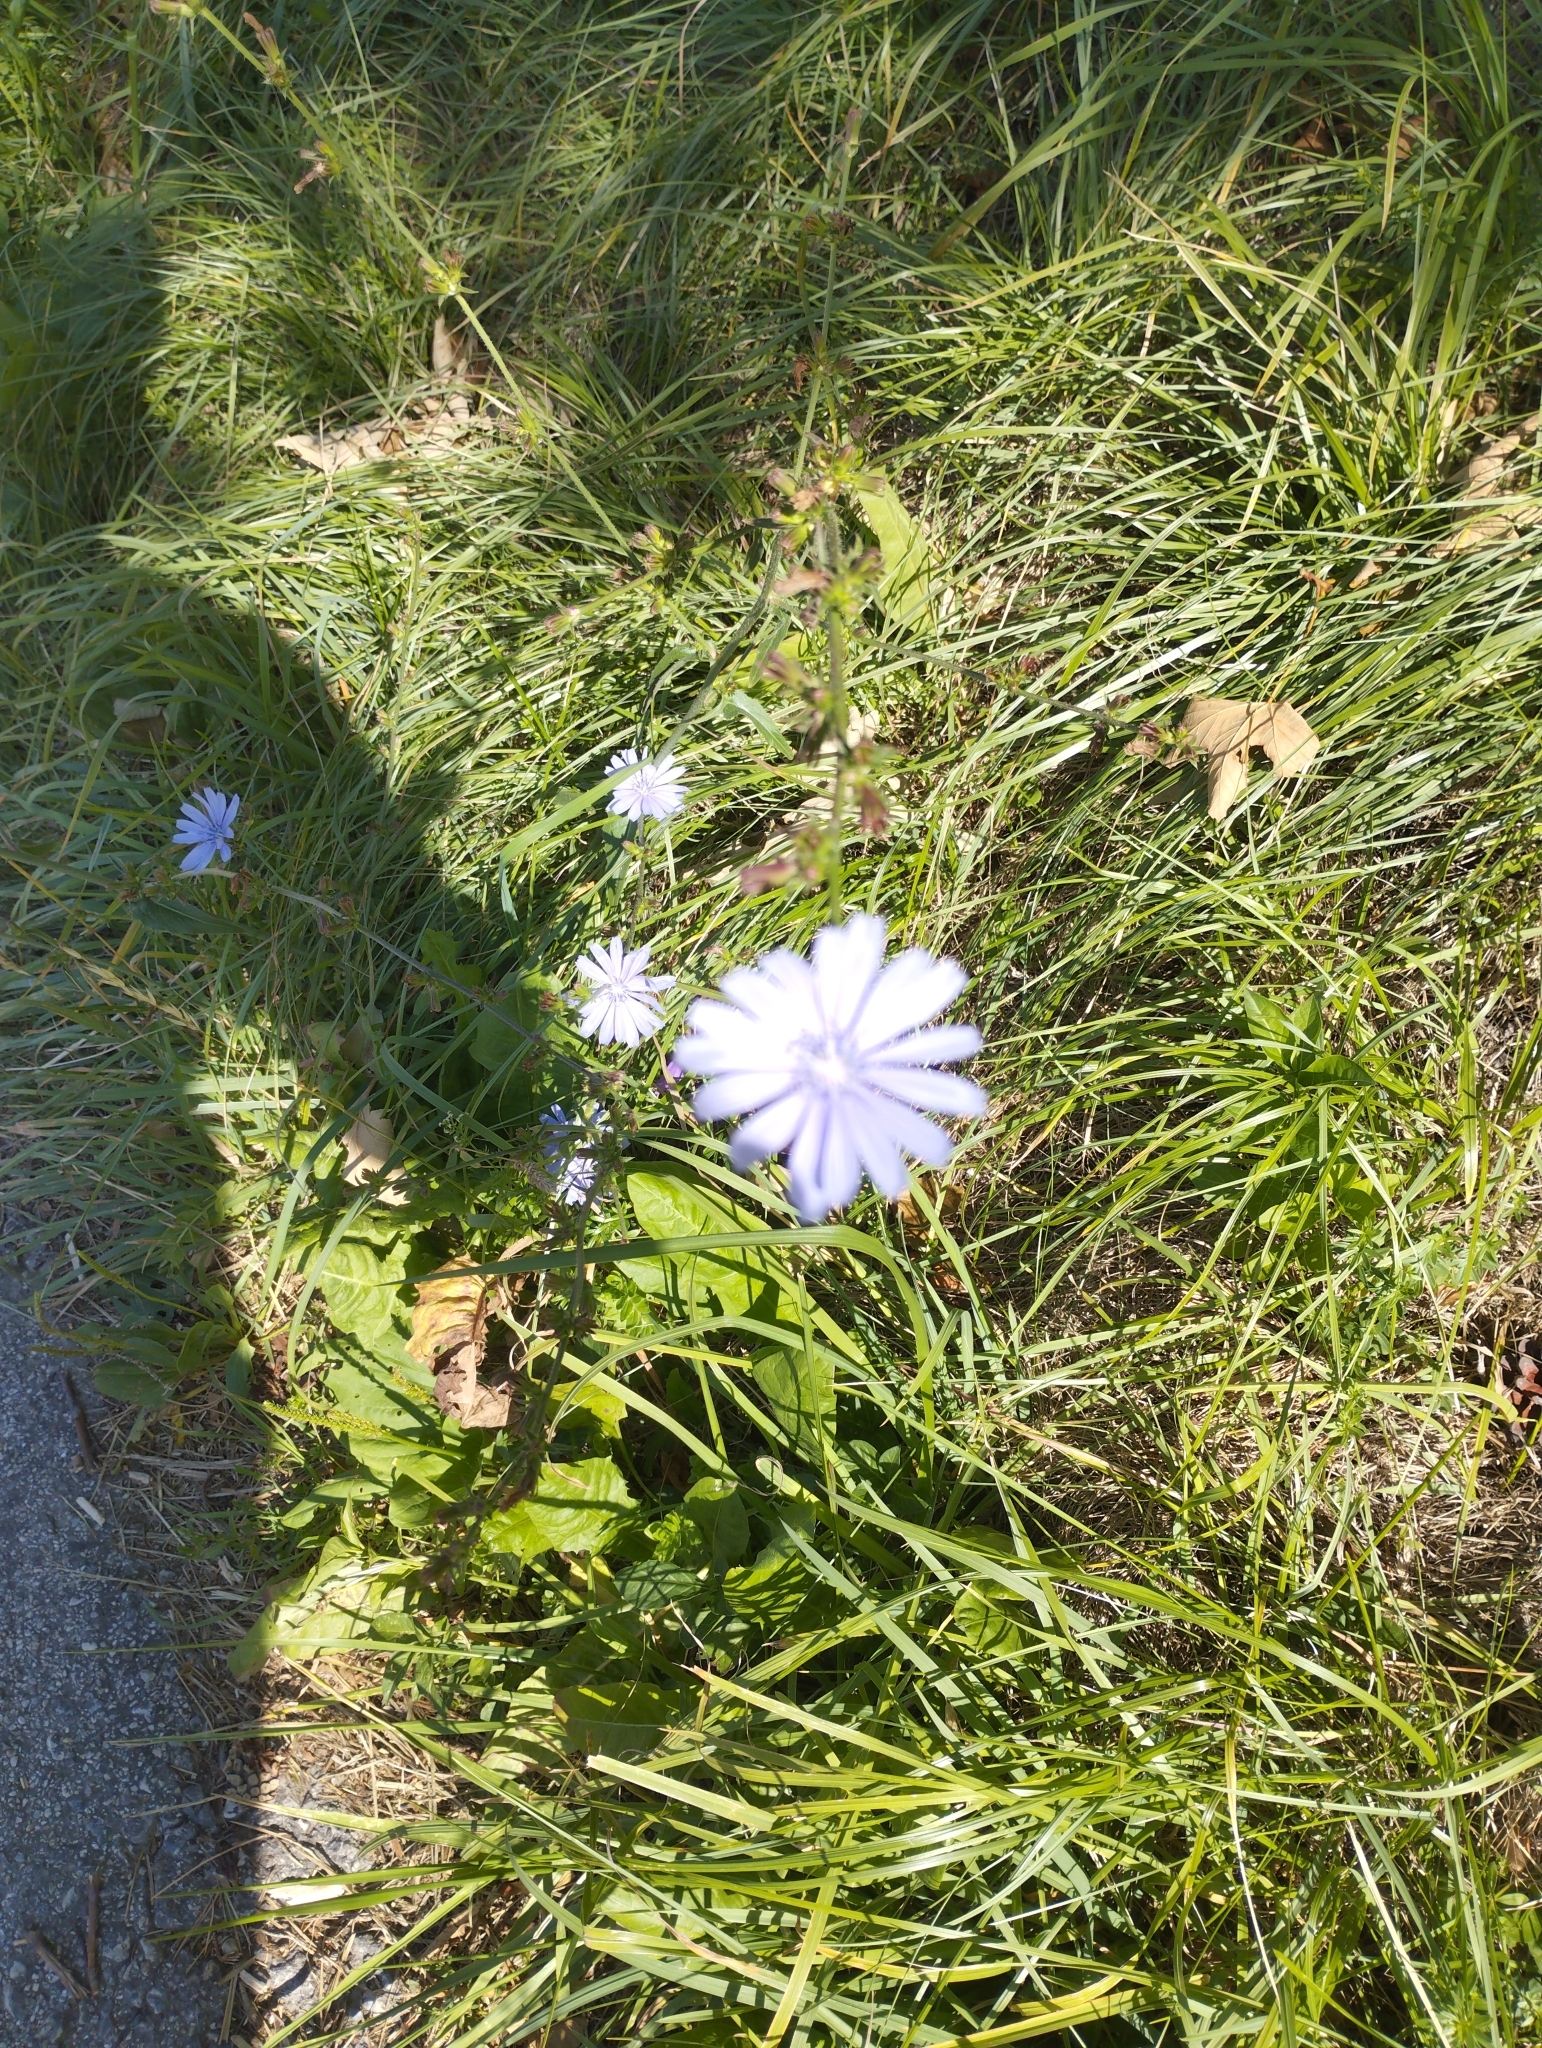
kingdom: Plantae
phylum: Tracheophyta
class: Magnoliopsida
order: Asterales
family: Asteraceae
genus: Cichorium
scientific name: Cichorium intybus
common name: Chicory
